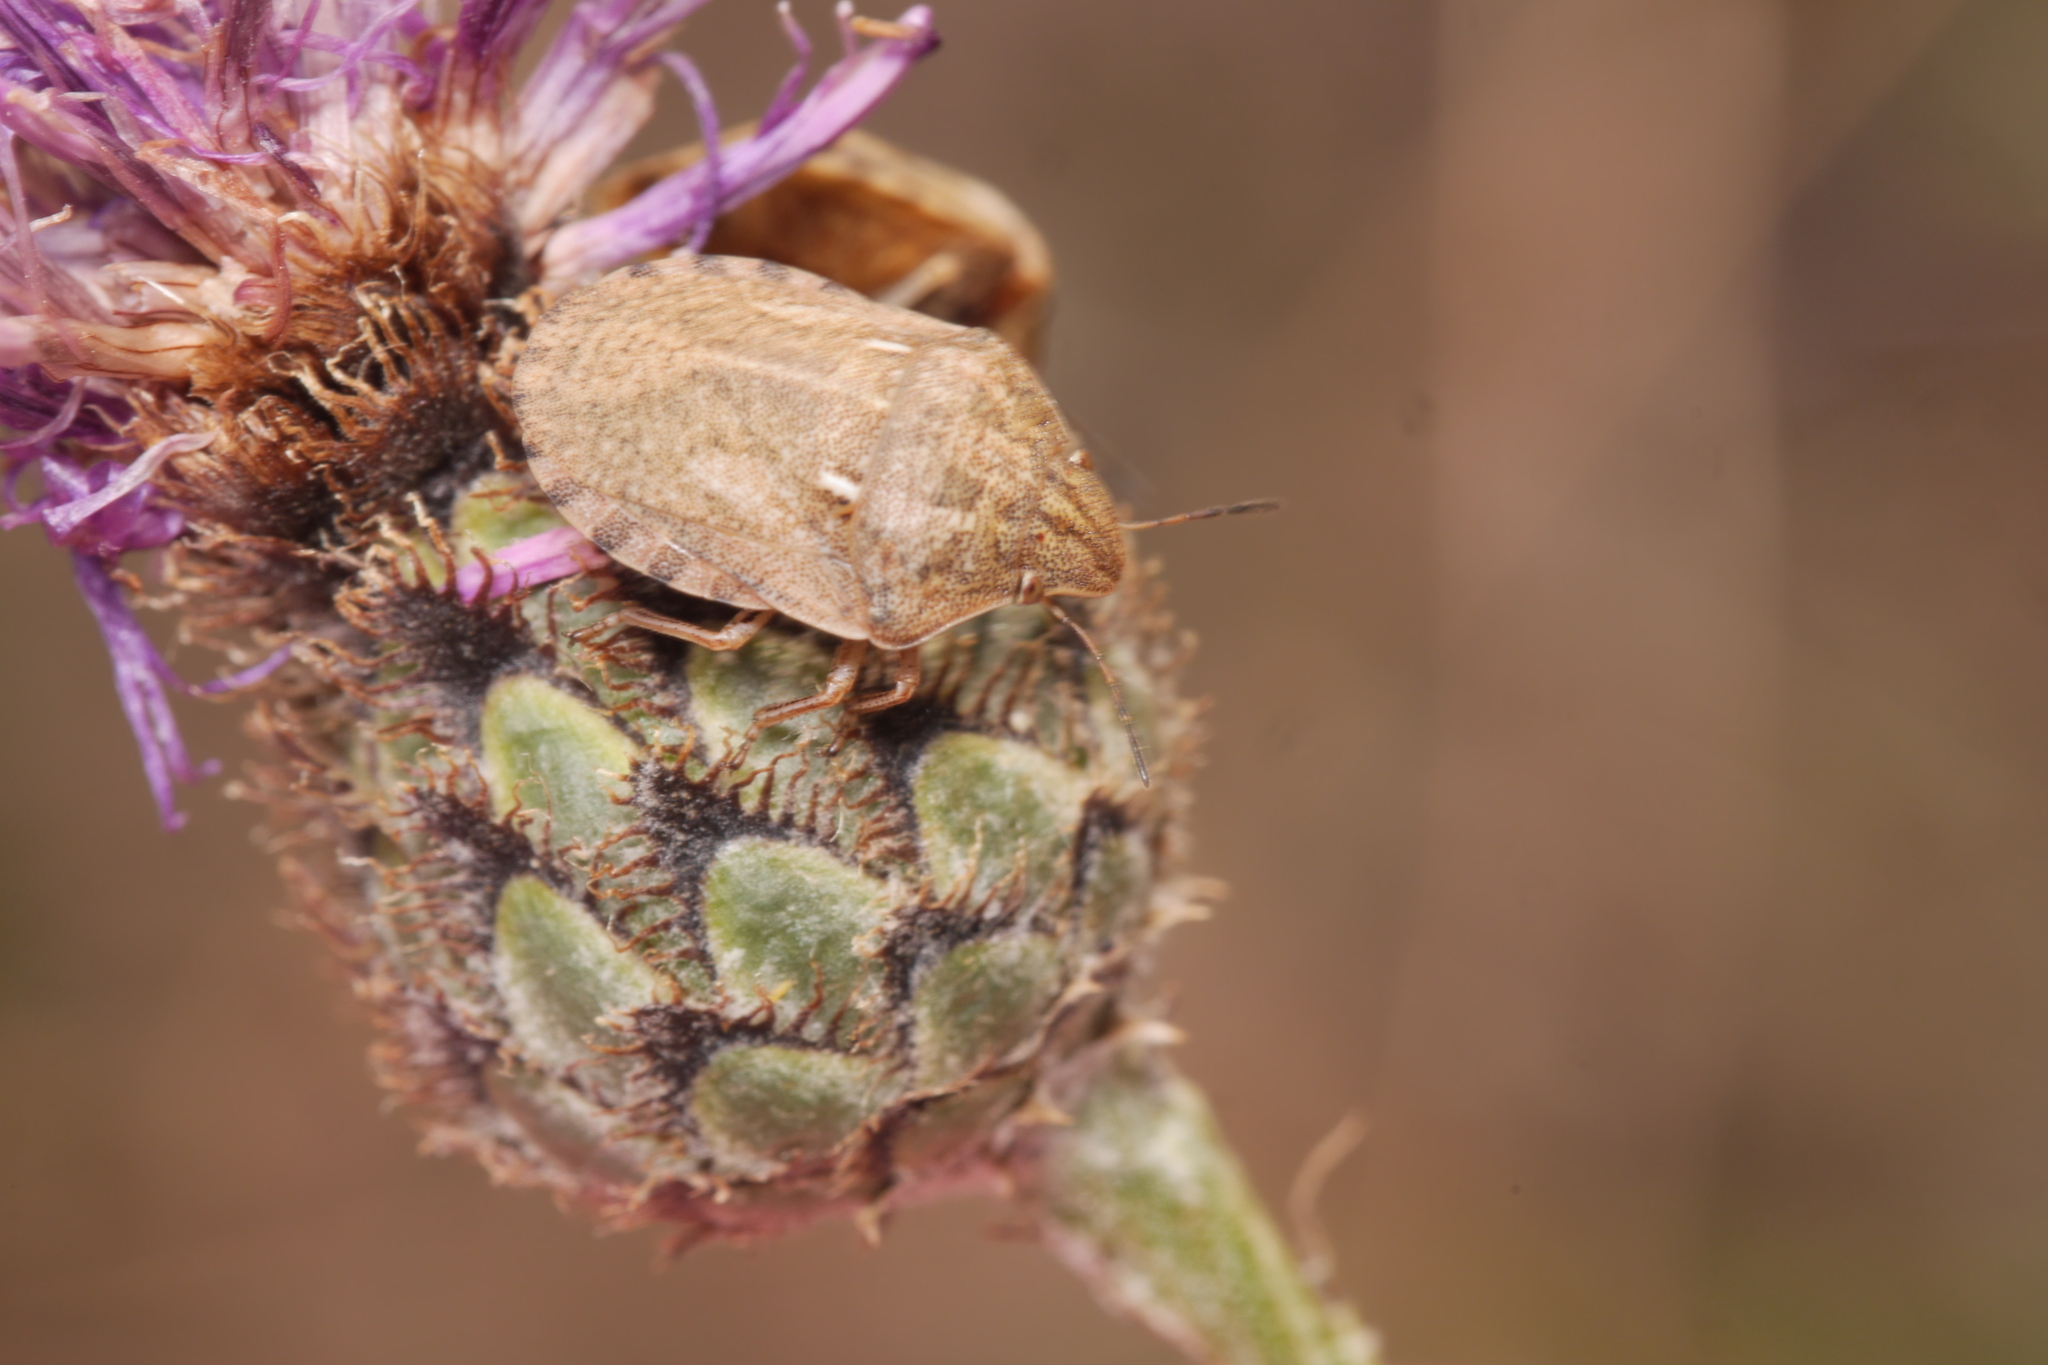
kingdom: Animalia
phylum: Arthropoda
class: Insecta
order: Hemiptera
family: Scutelleridae
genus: Eurygaster
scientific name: Eurygaster maura
